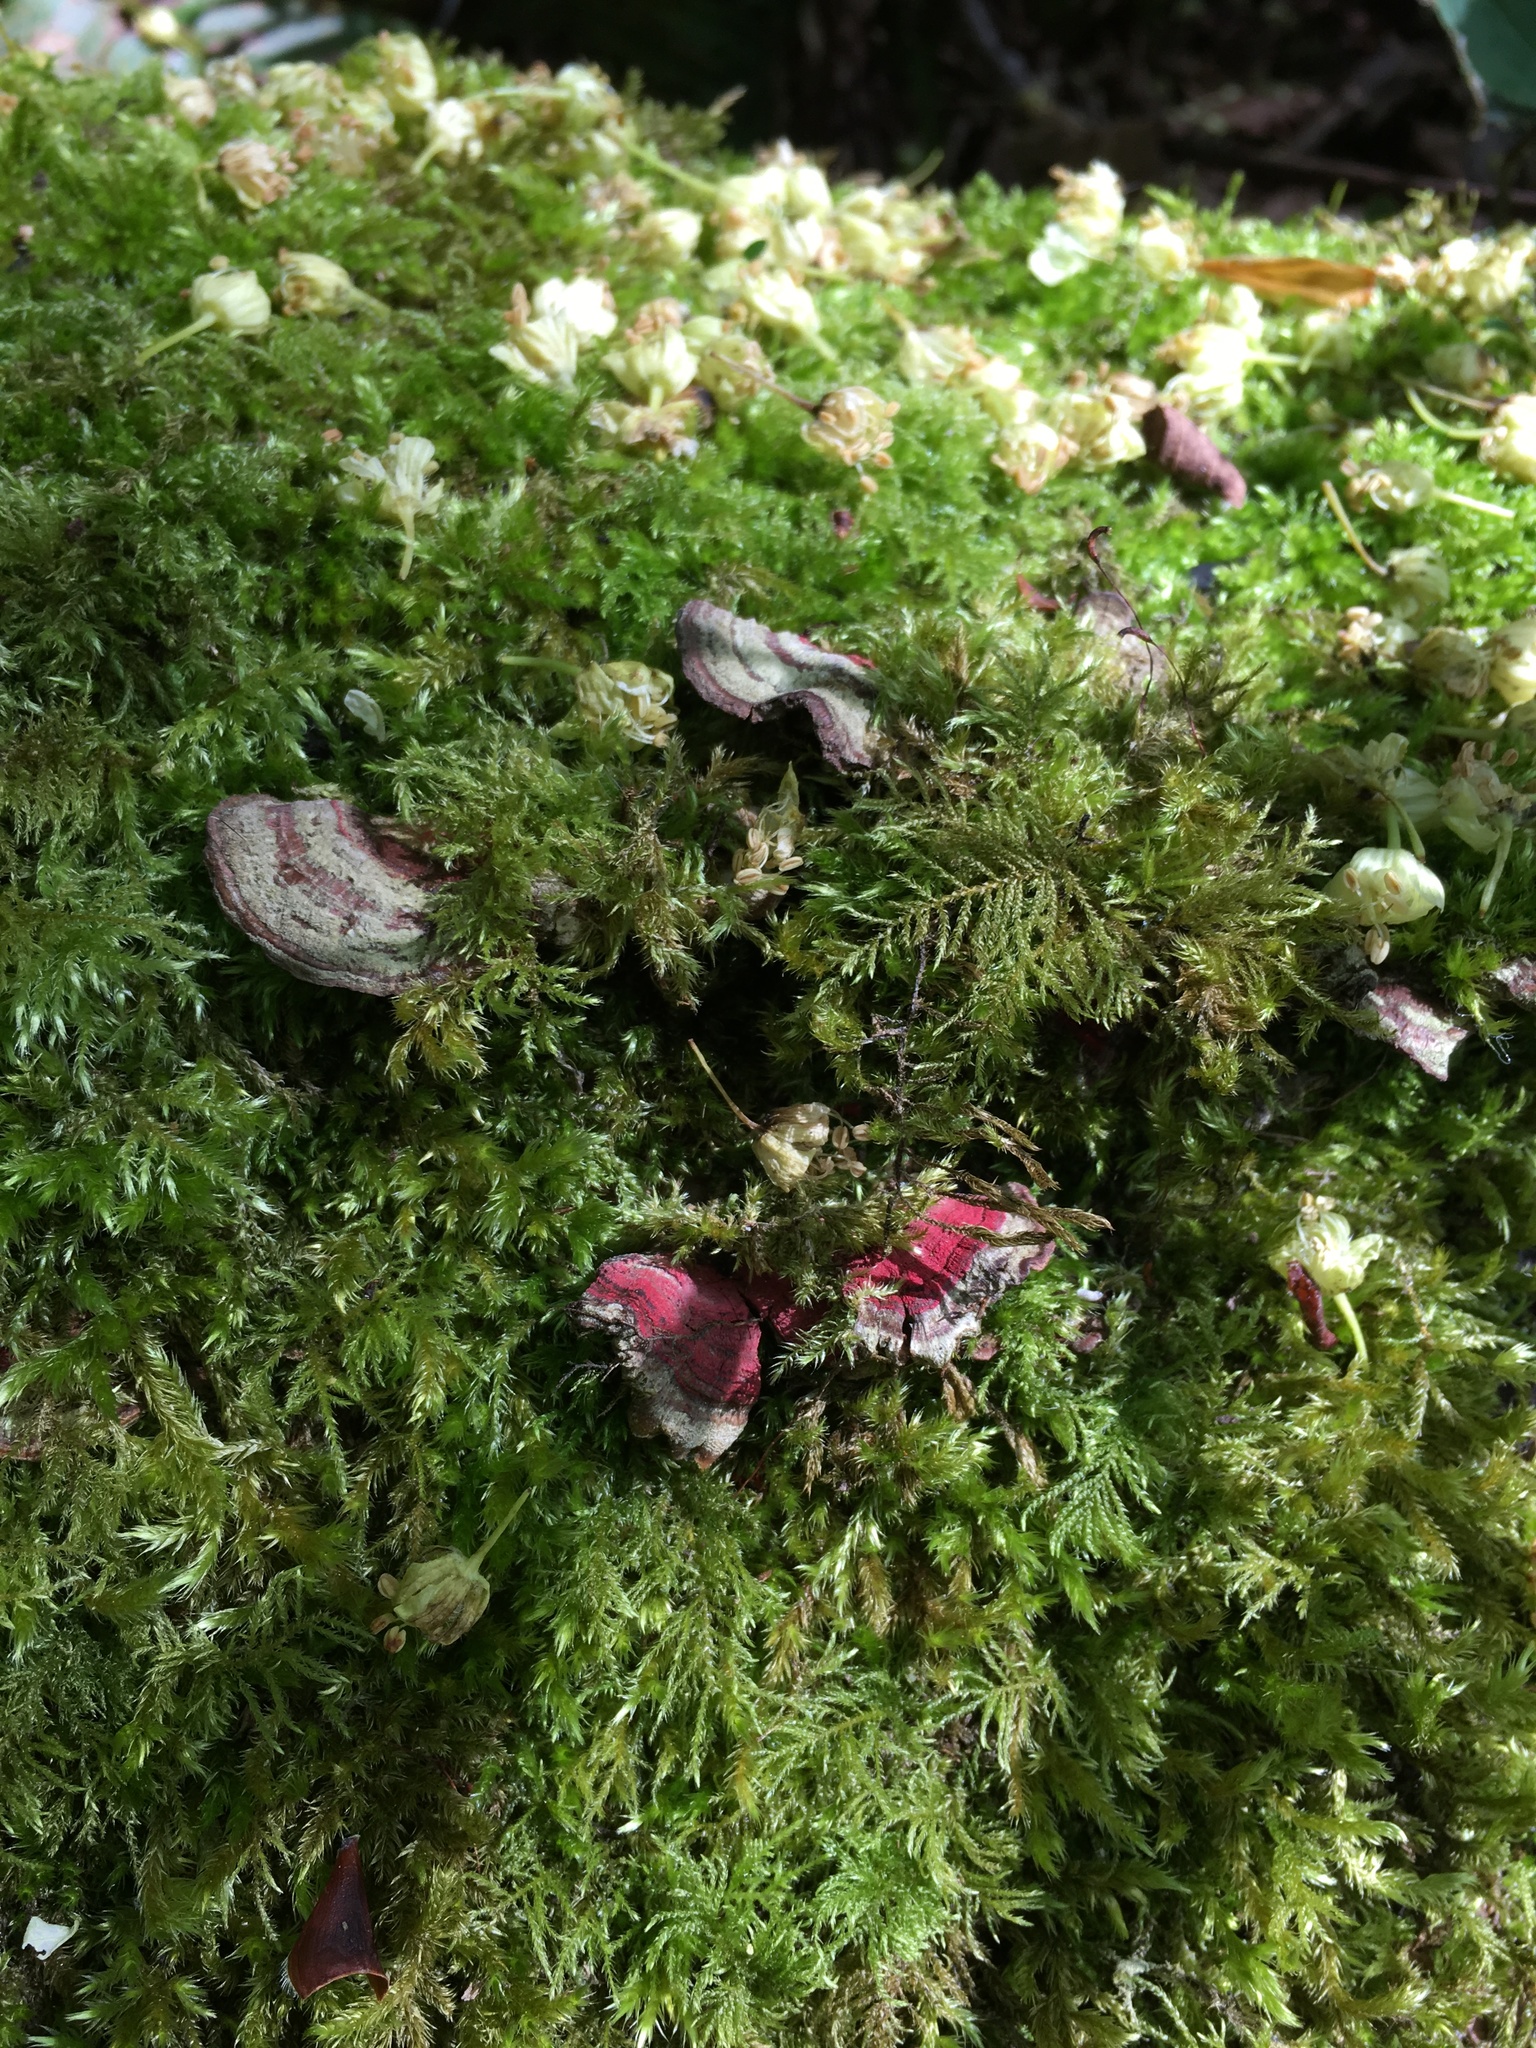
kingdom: Fungi
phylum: Basidiomycota
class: Agaricomycetes
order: Polyporales
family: Polyporaceae
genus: Trametes
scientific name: Trametes versicolor
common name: Turkeytail
